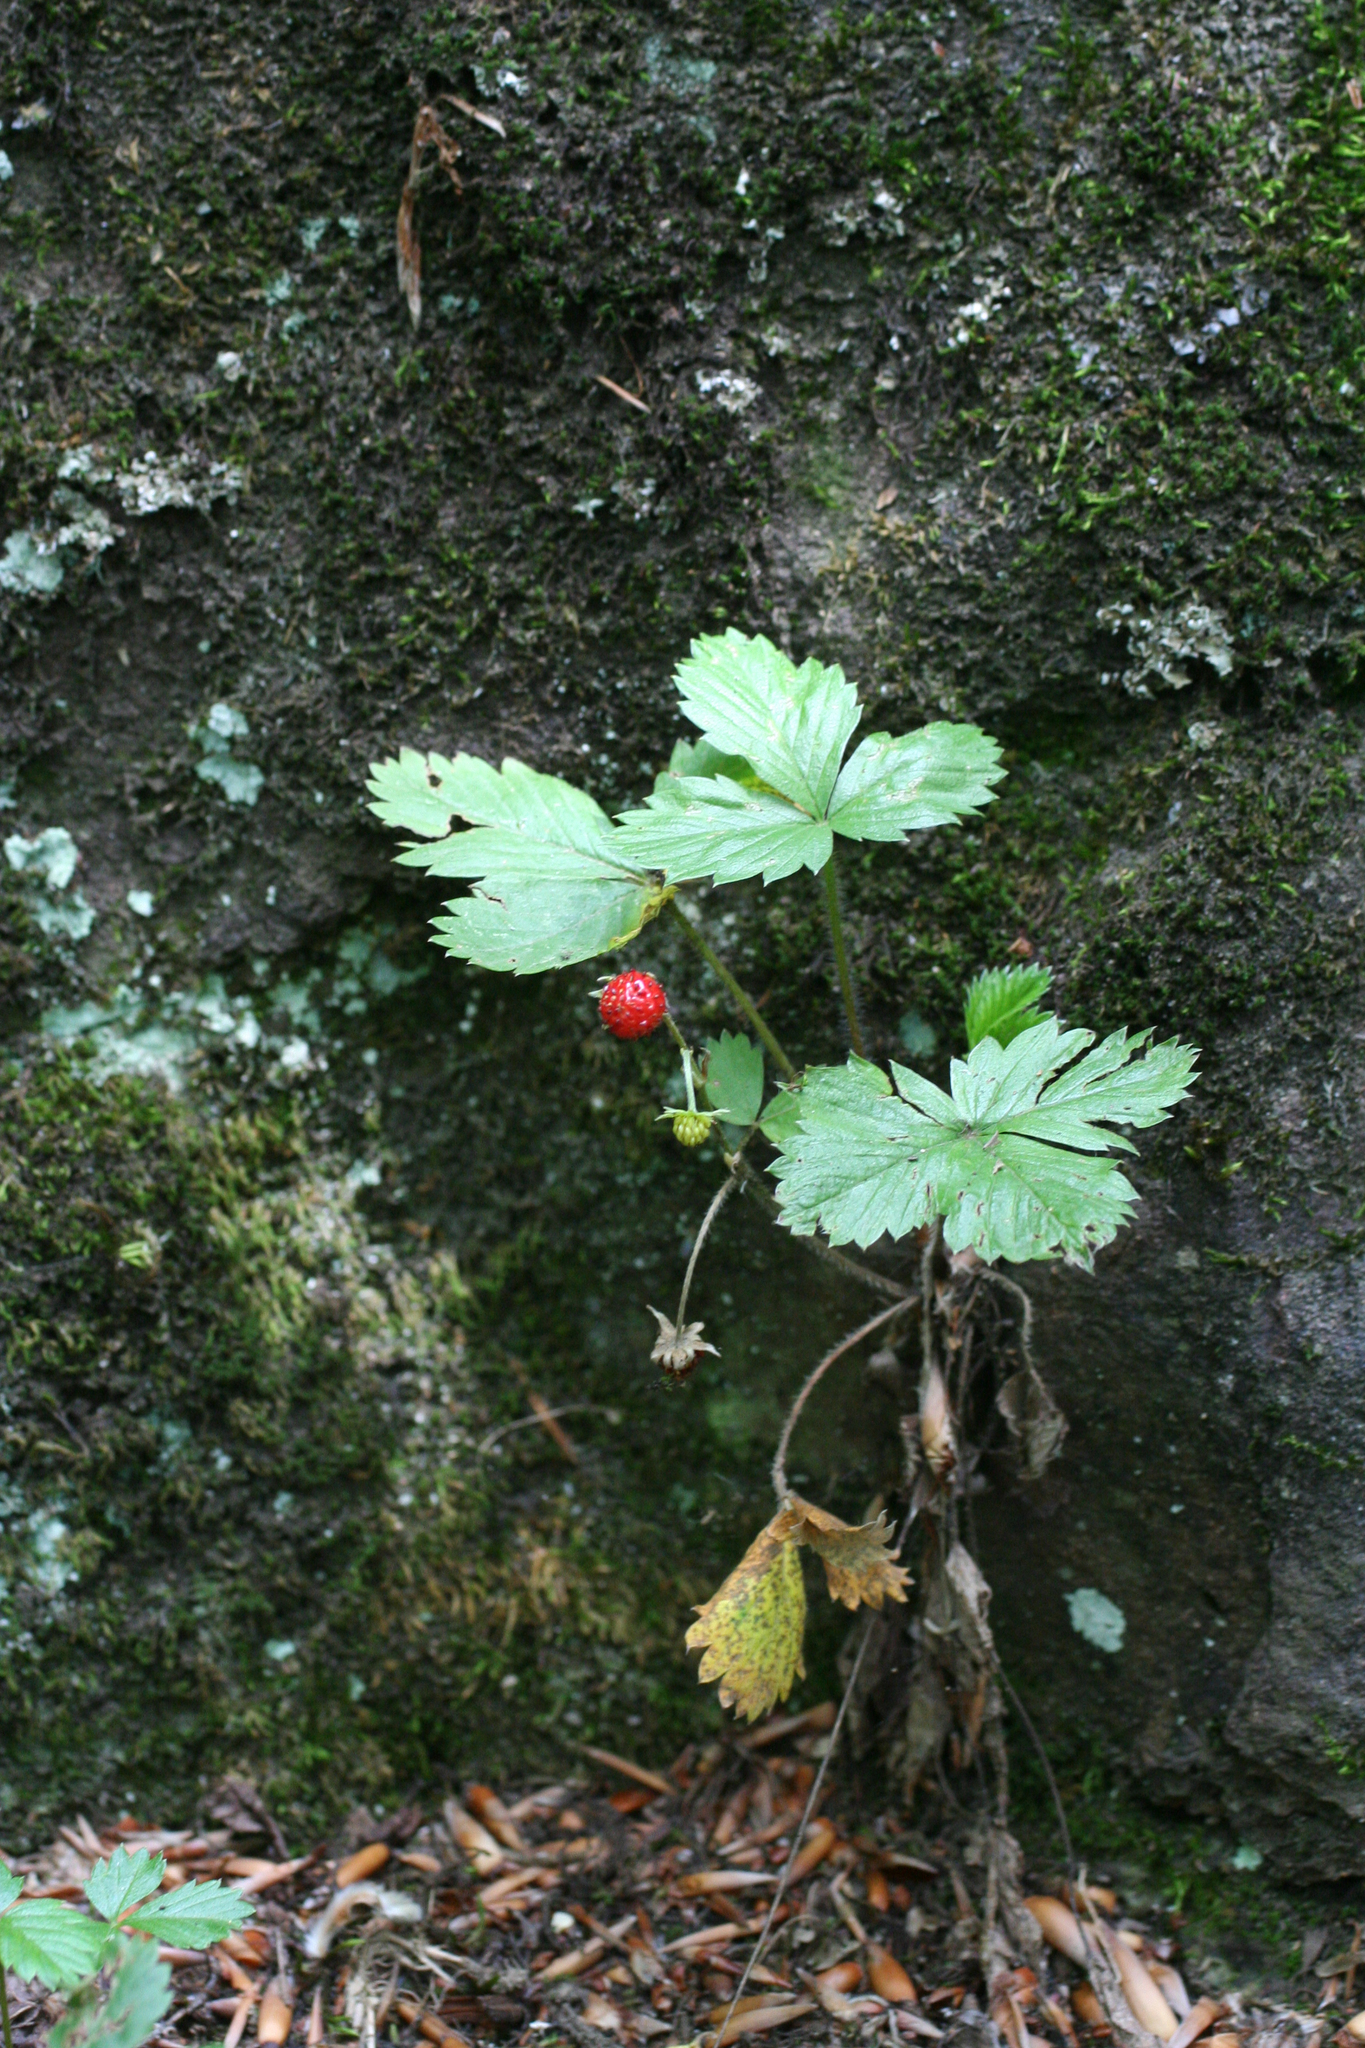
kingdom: Plantae
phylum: Tracheophyta
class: Magnoliopsida
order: Rosales
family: Rosaceae
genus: Fragaria
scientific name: Fragaria vesca
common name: Wild strawberry
